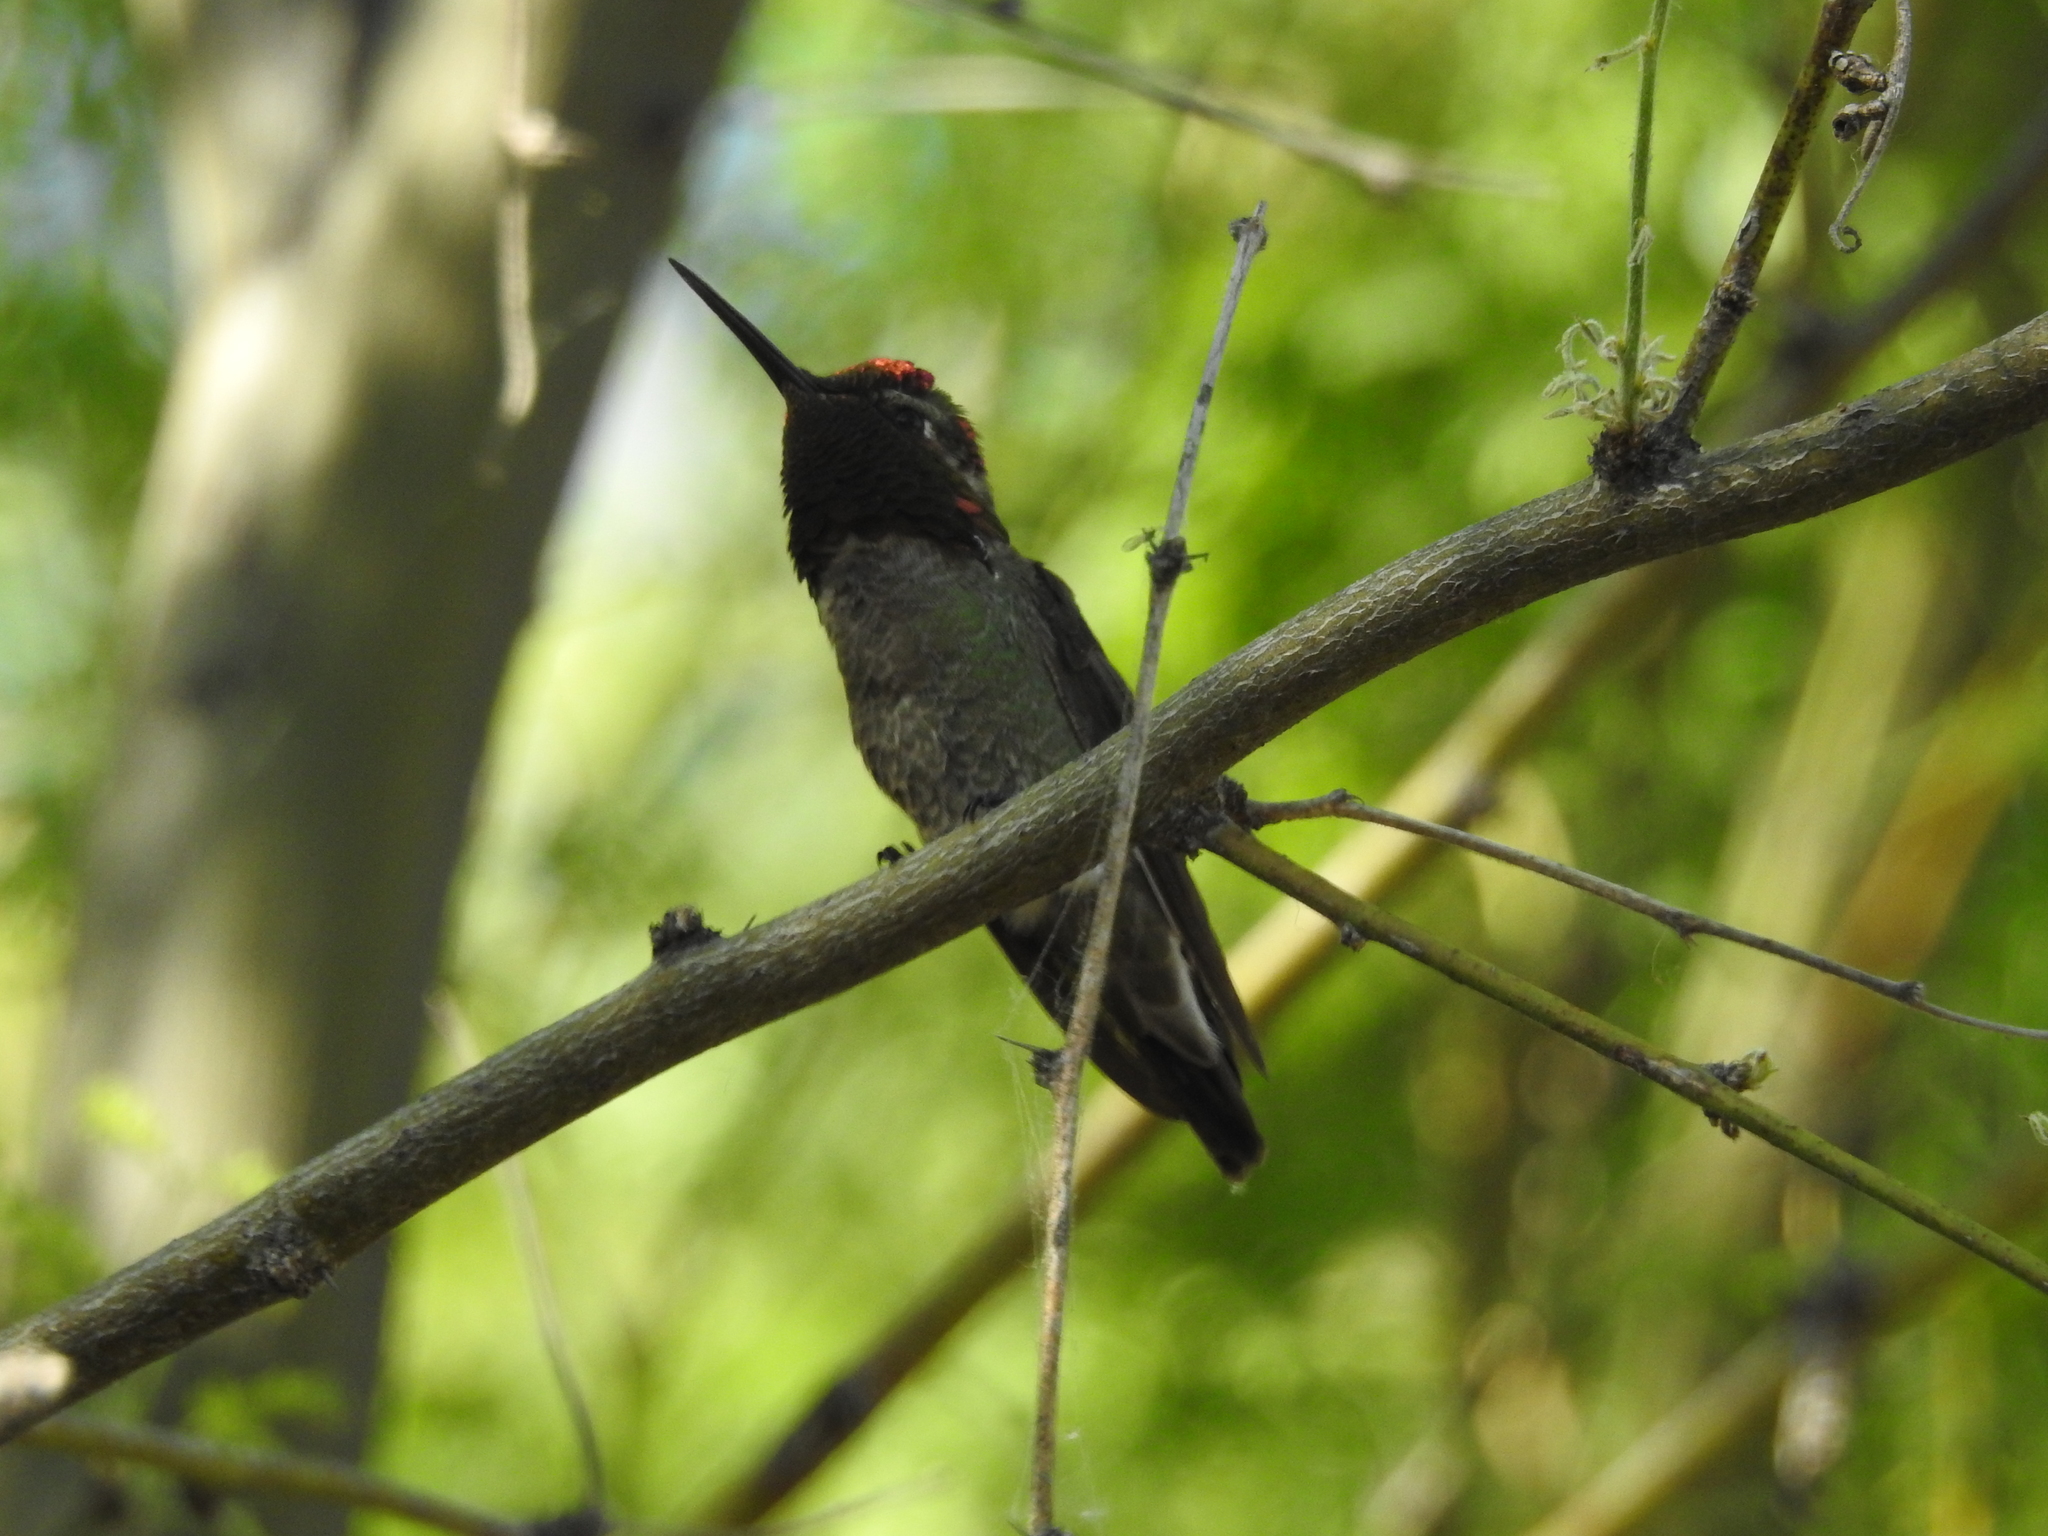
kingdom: Animalia
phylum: Chordata
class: Aves
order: Apodiformes
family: Trochilidae
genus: Calypte
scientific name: Calypte anna
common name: Anna's hummingbird
